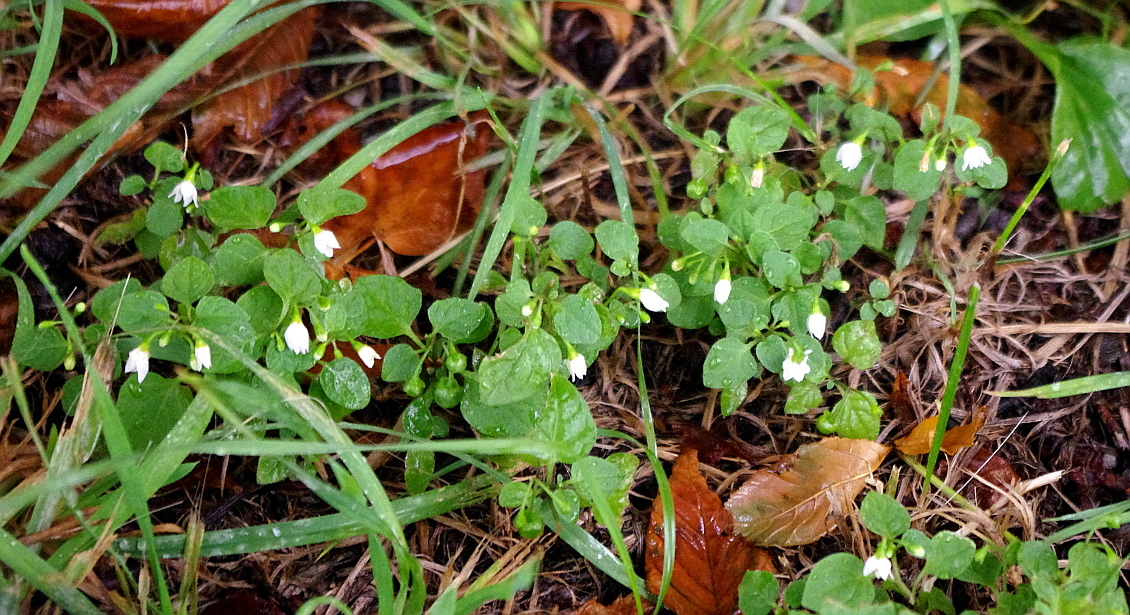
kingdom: Plantae
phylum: Tracheophyta
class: Magnoliopsida
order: Solanales
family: Solanaceae
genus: Solanum
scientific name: Solanum nigrum
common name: Black nightshade
